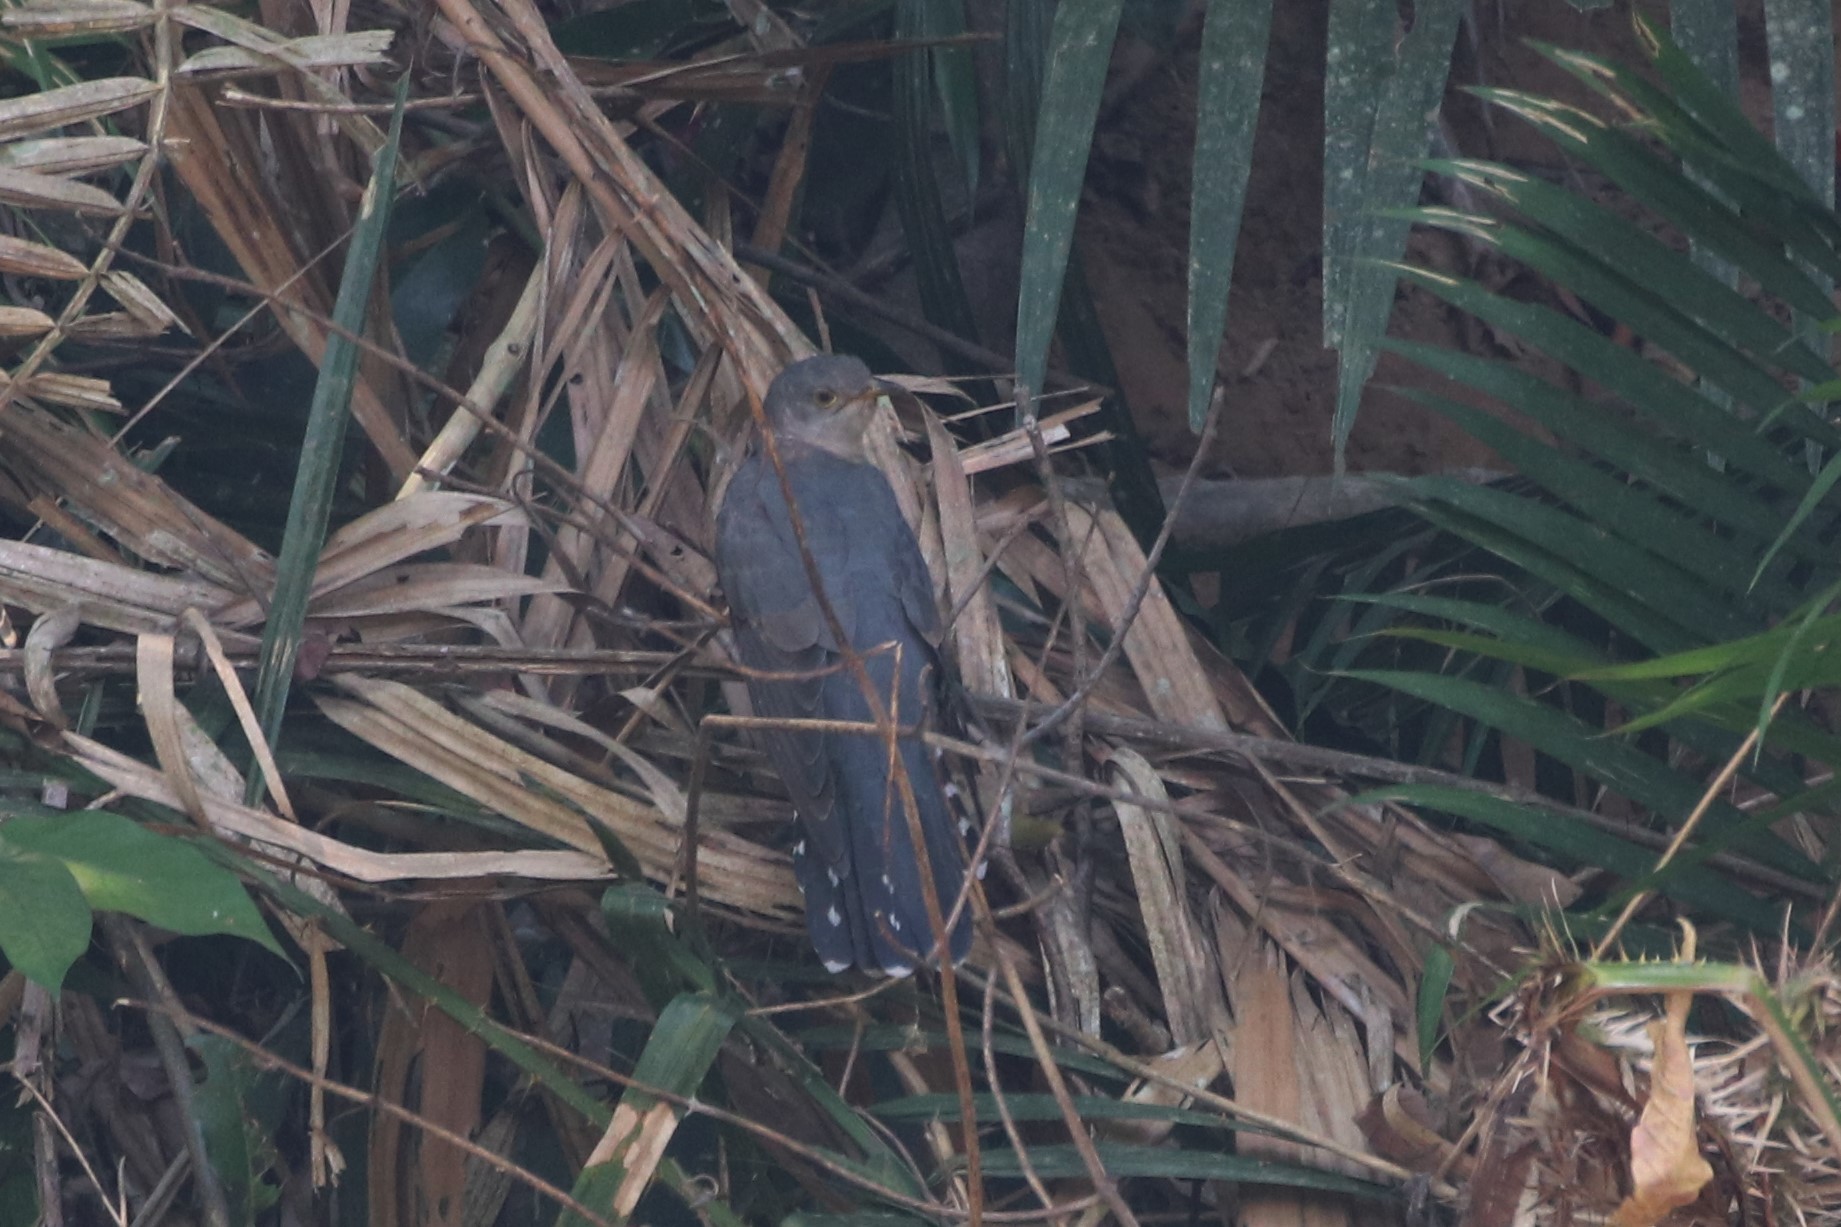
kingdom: Animalia
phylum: Chordata
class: Aves
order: Cuculiformes
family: Cuculidae
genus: Cuculus
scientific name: Cuculus saturatus
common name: Himalayan cuckoo
